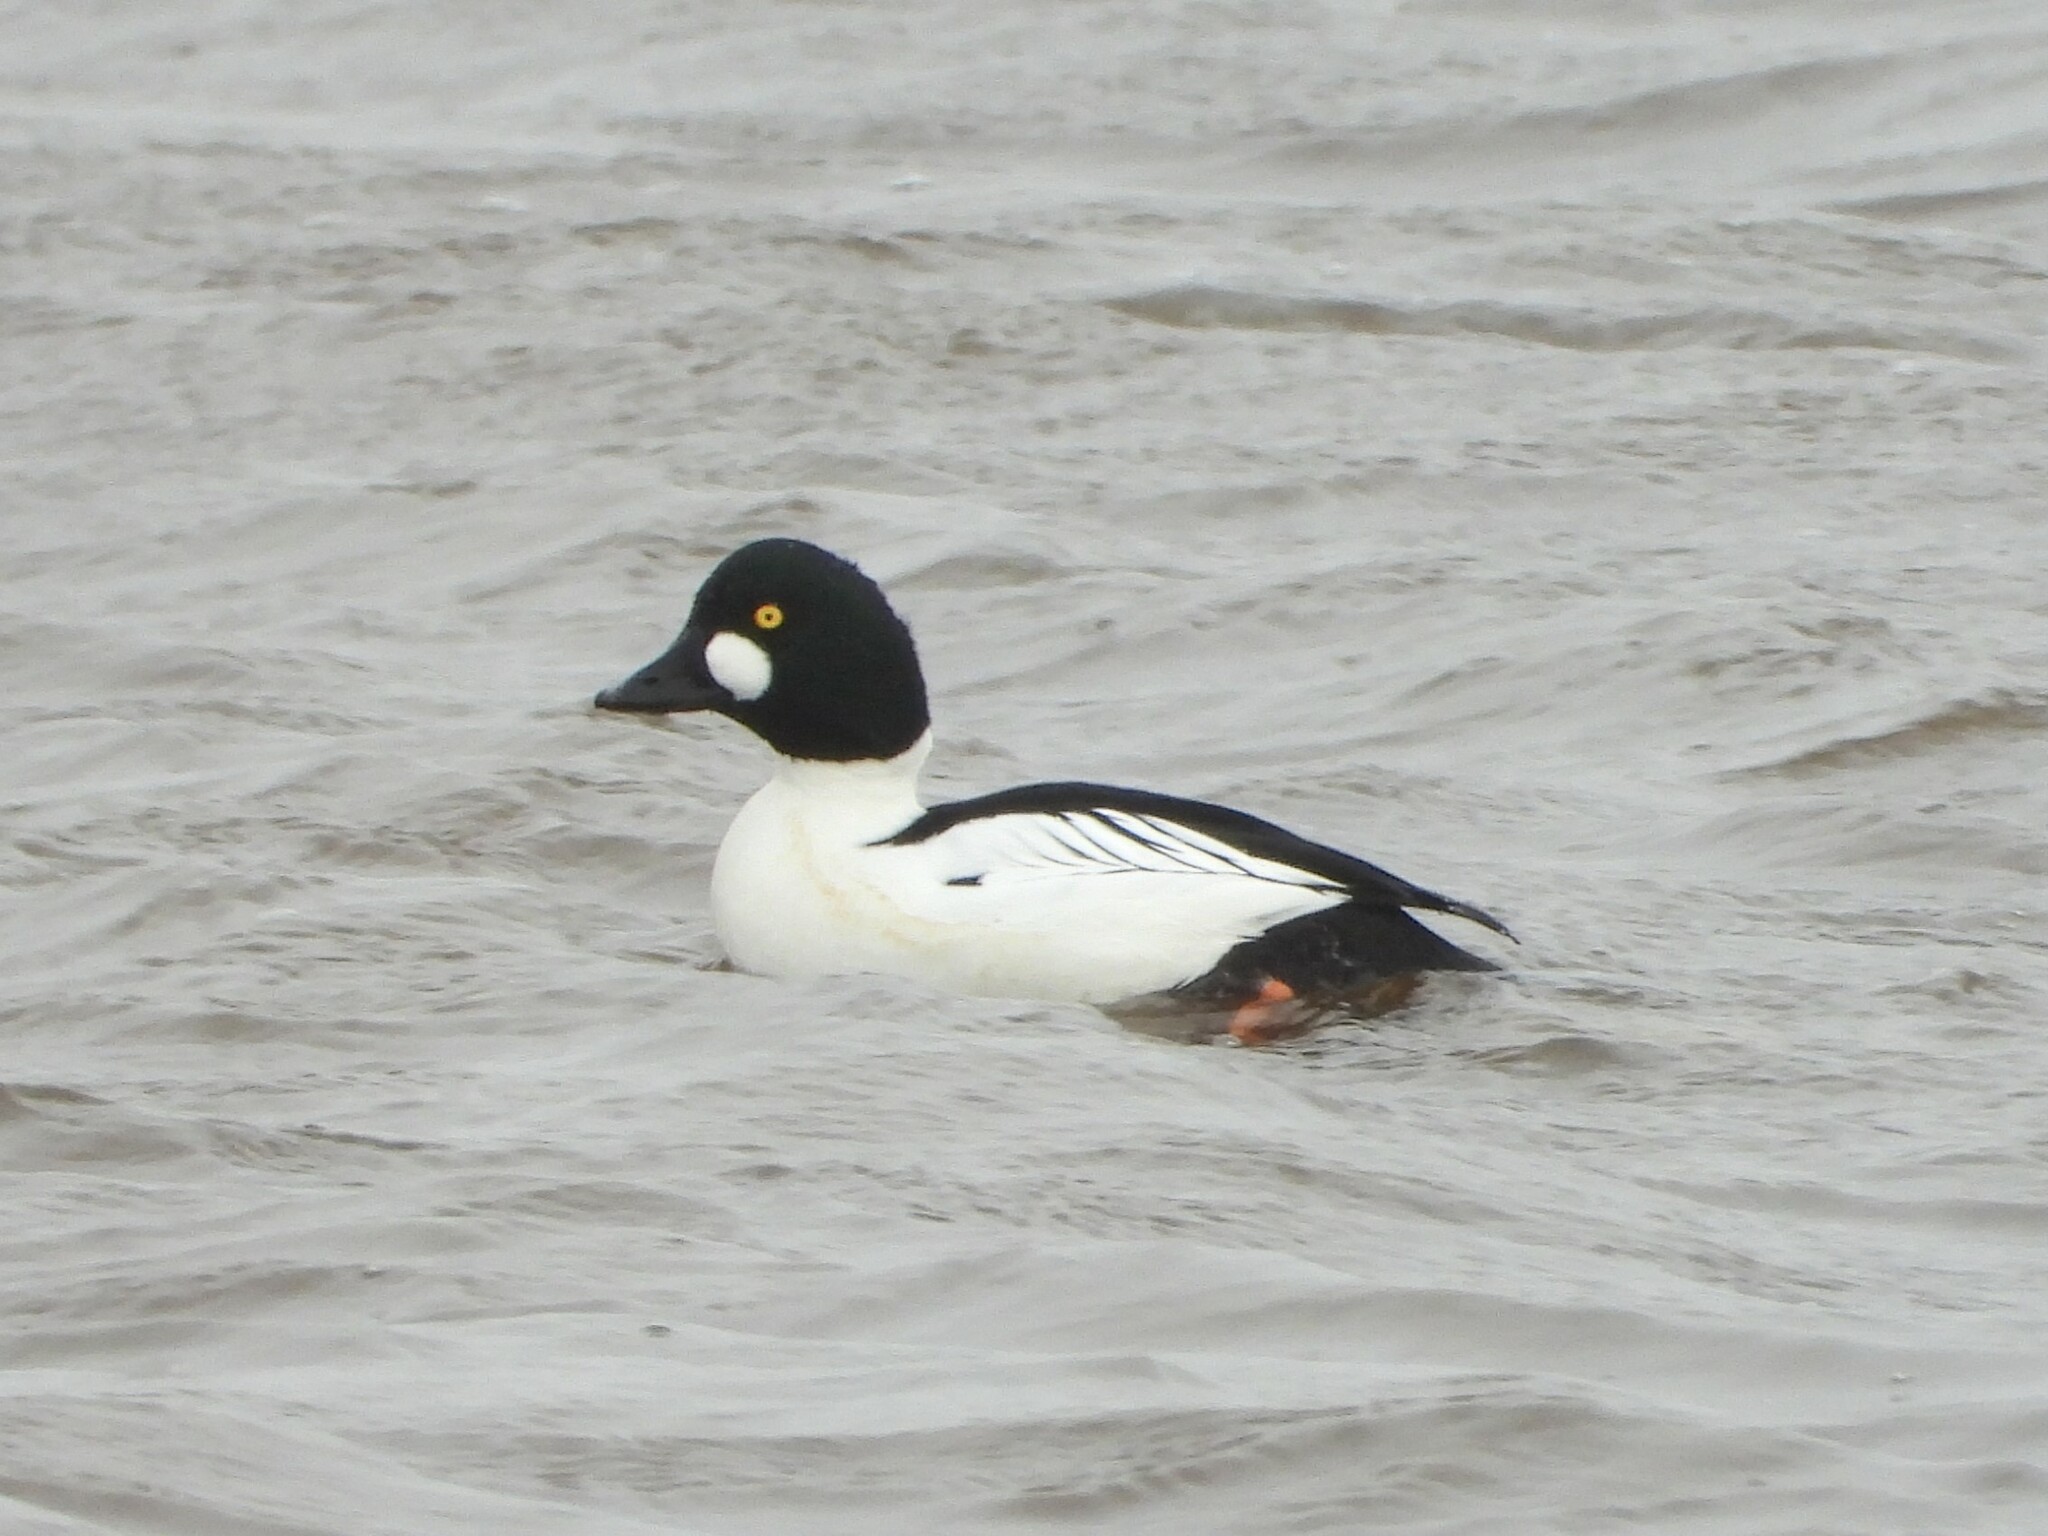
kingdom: Animalia
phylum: Chordata
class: Aves
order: Anseriformes
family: Anatidae
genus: Bucephala
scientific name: Bucephala clangula
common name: Common goldeneye
